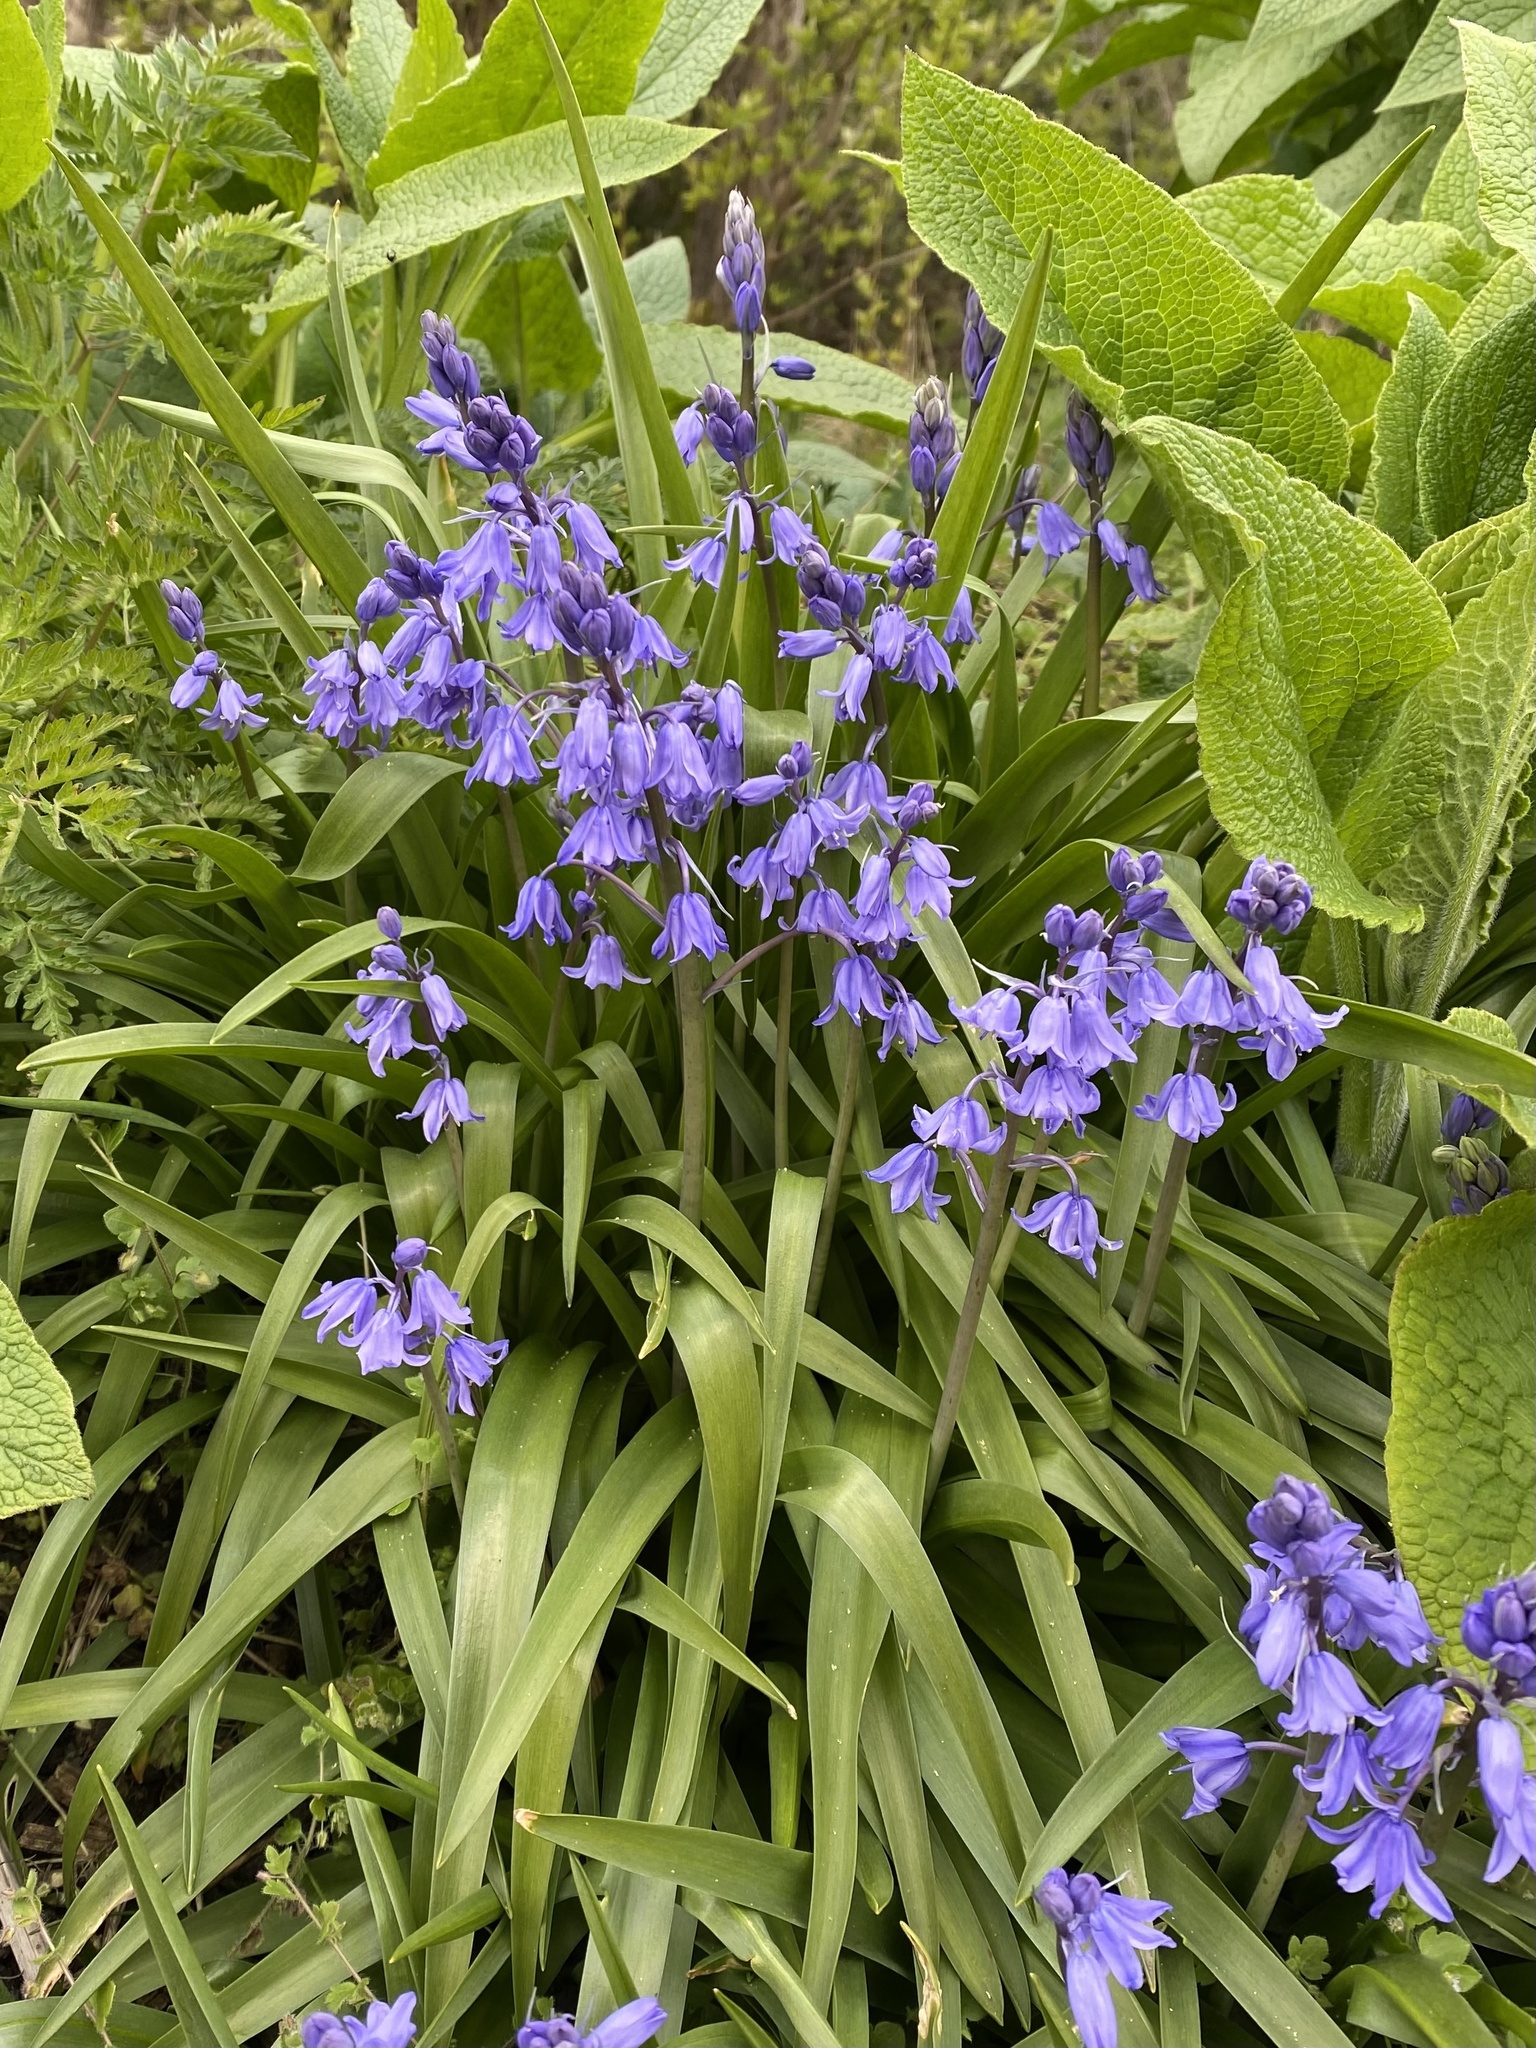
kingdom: Plantae
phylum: Tracheophyta
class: Liliopsida
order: Asparagales
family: Asparagaceae
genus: Hyacinthoides
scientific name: Hyacinthoides hispanica
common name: Spanish bluebell
